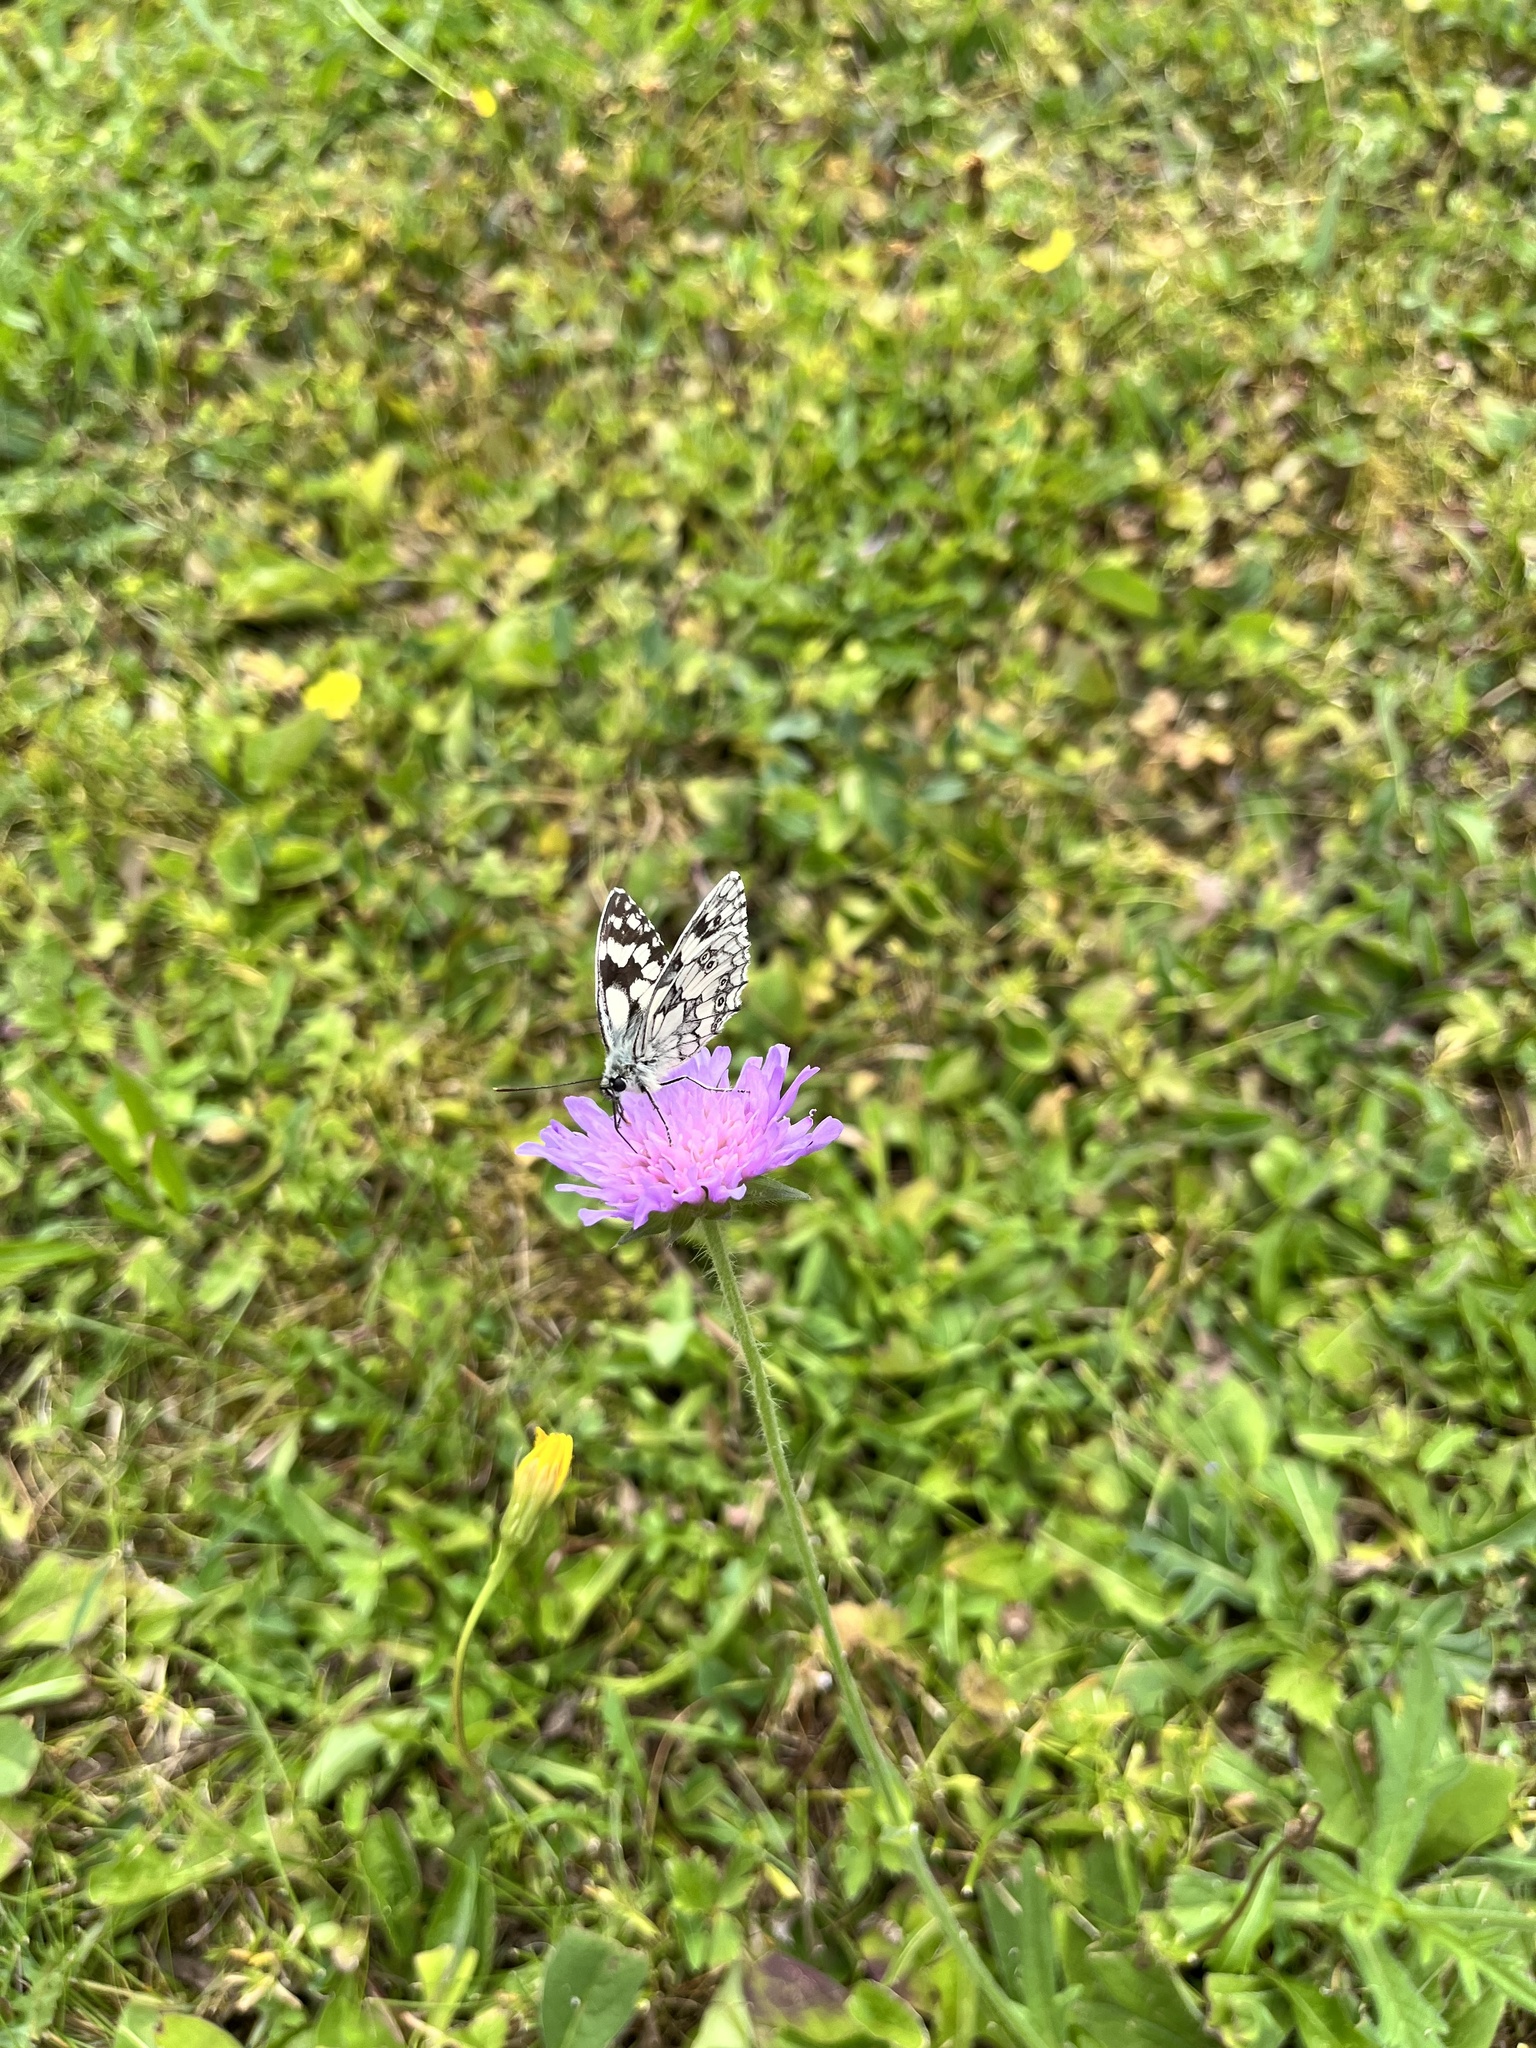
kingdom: Animalia
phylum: Arthropoda
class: Insecta
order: Lepidoptera
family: Nymphalidae
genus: Melanargia
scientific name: Melanargia galathea
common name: Marbled white
